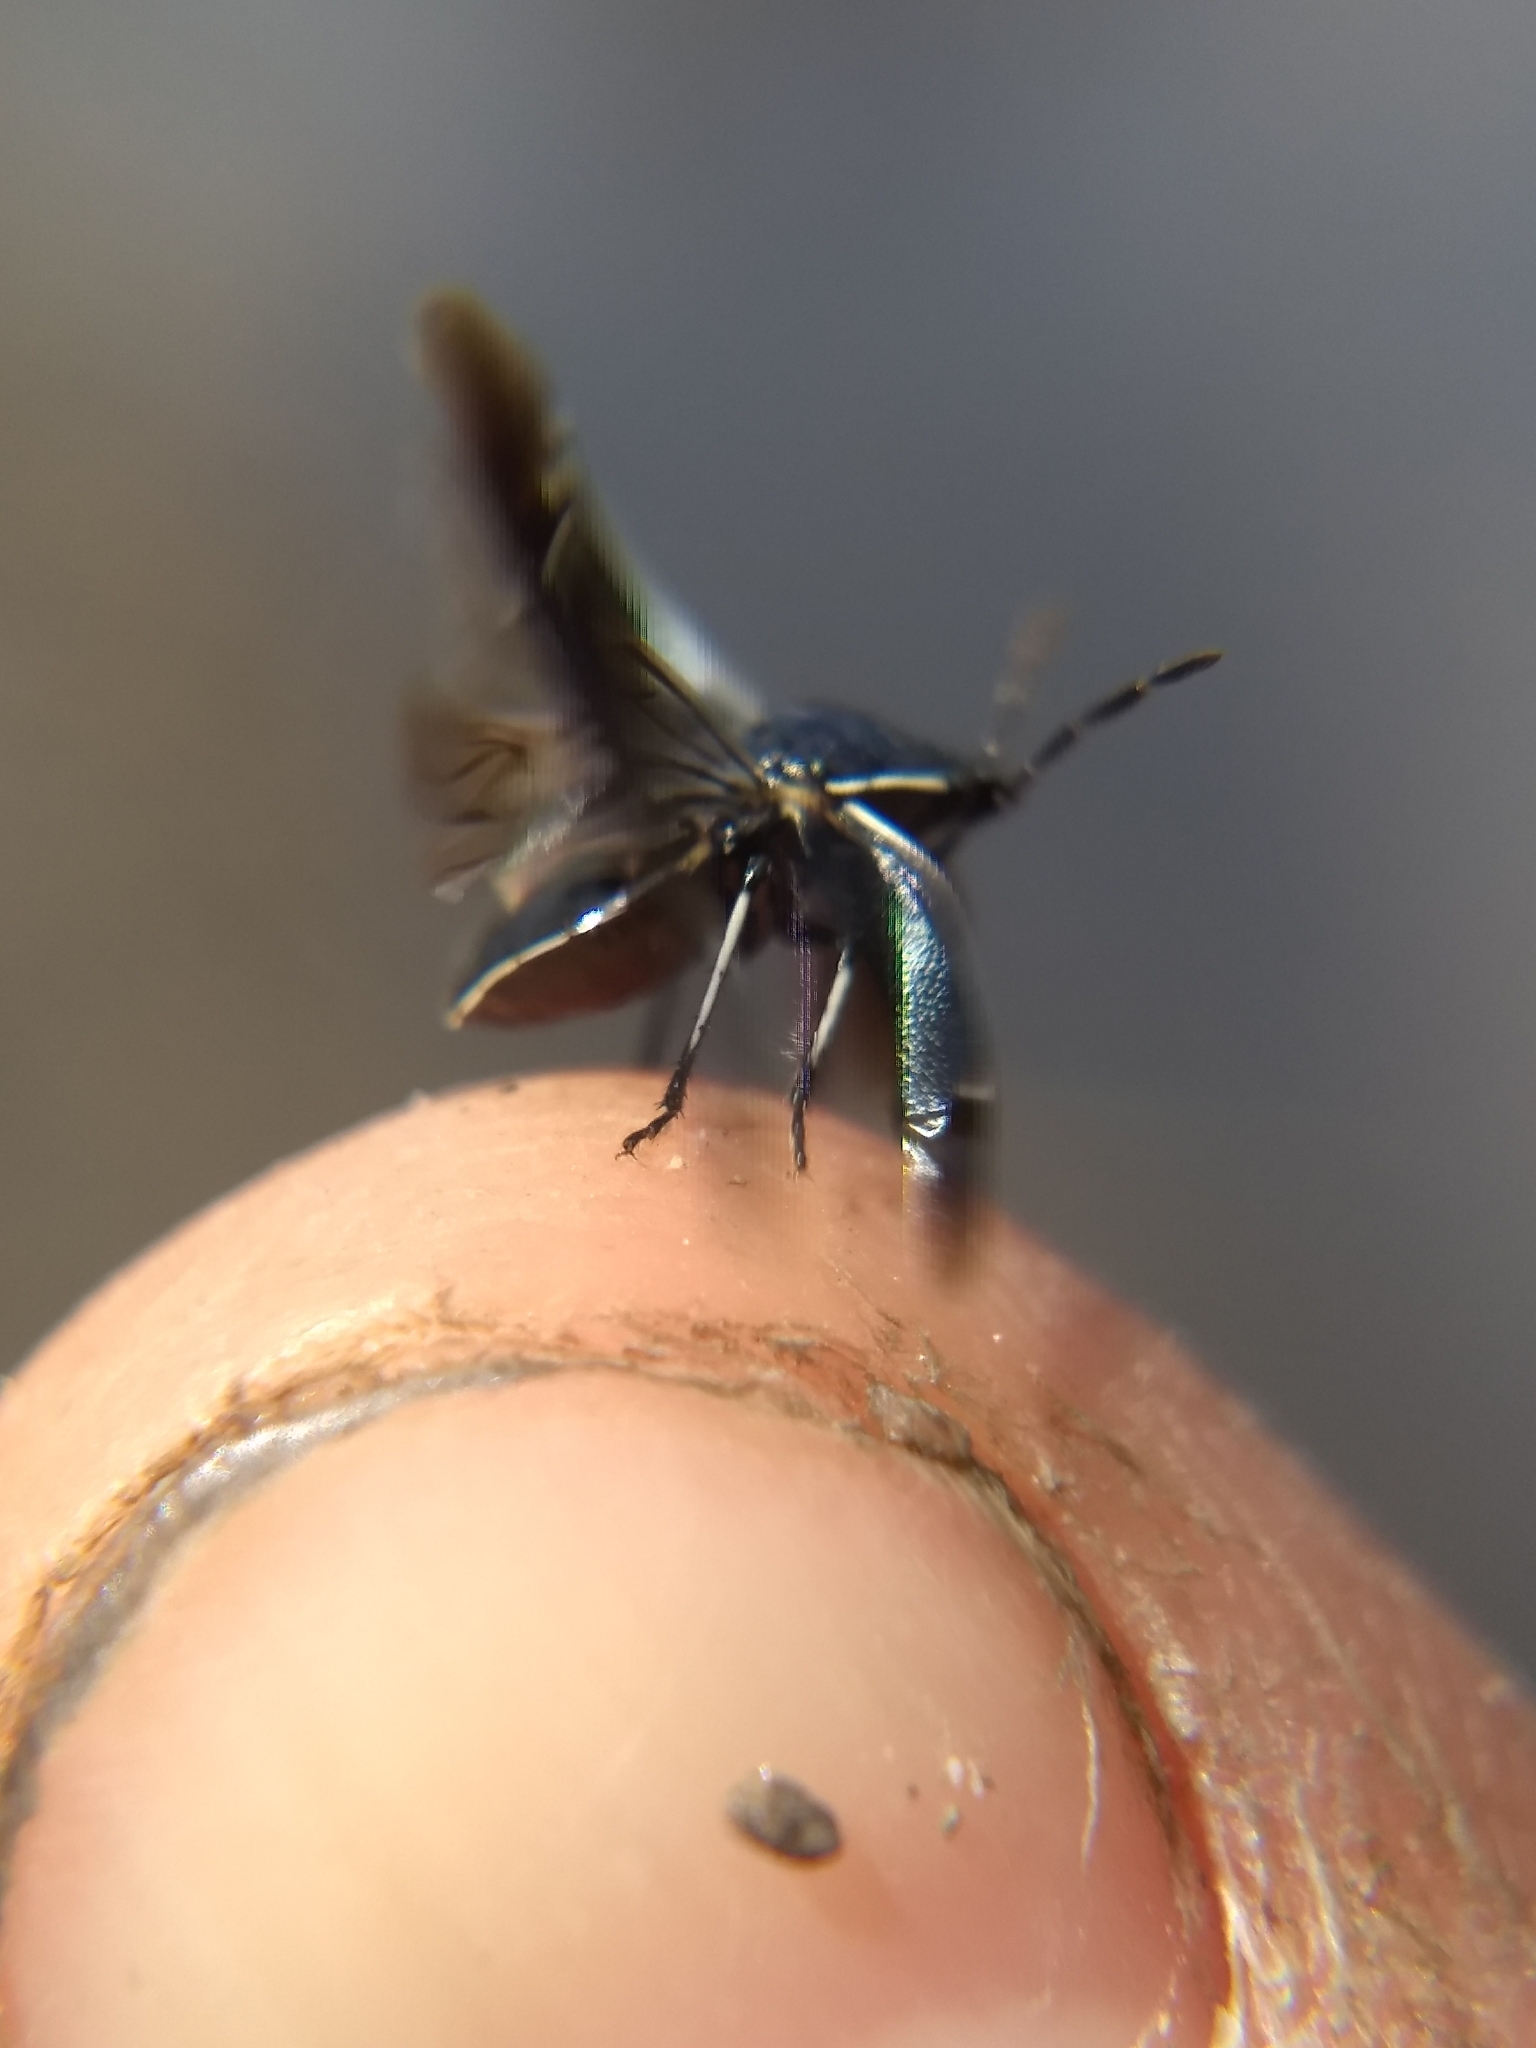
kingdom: Animalia
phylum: Arthropoda
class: Insecta
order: Hemiptera
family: Cydnidae
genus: Sehirus
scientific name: Sehirus cinctus
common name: White-margined burrower bug
